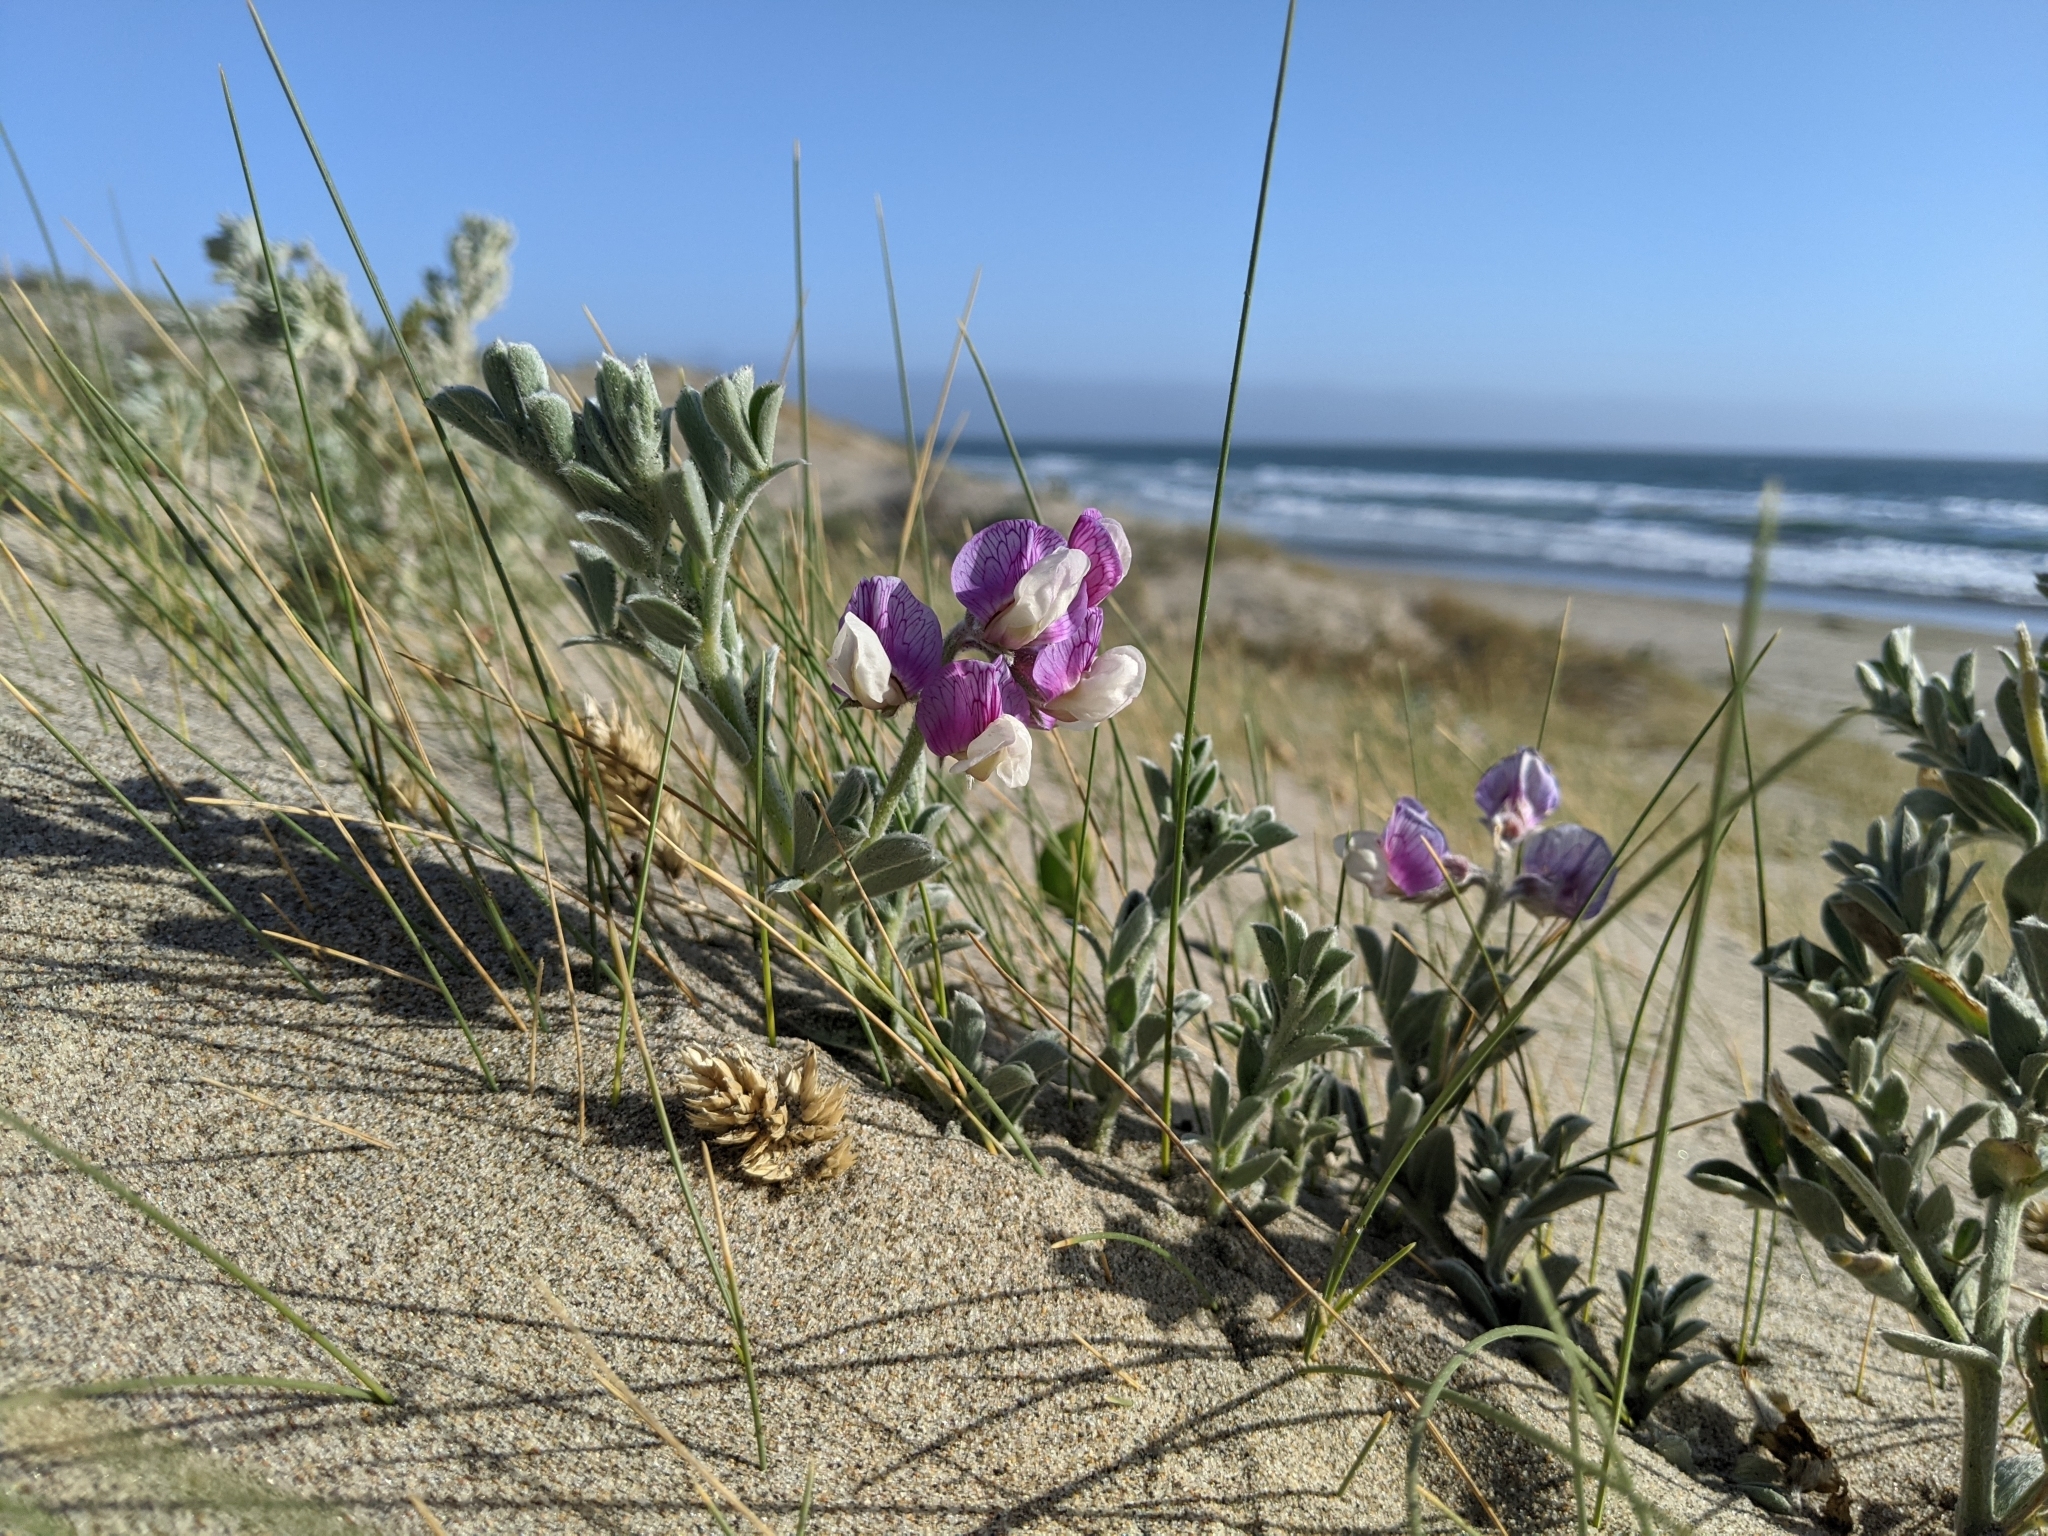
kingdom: Plantae
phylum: Tracheophyta
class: Magnoliopsida
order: Fabales
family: Fabaceae
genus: Lathyrus
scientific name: Lathyrus littoralis
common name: Dune sweet pea
